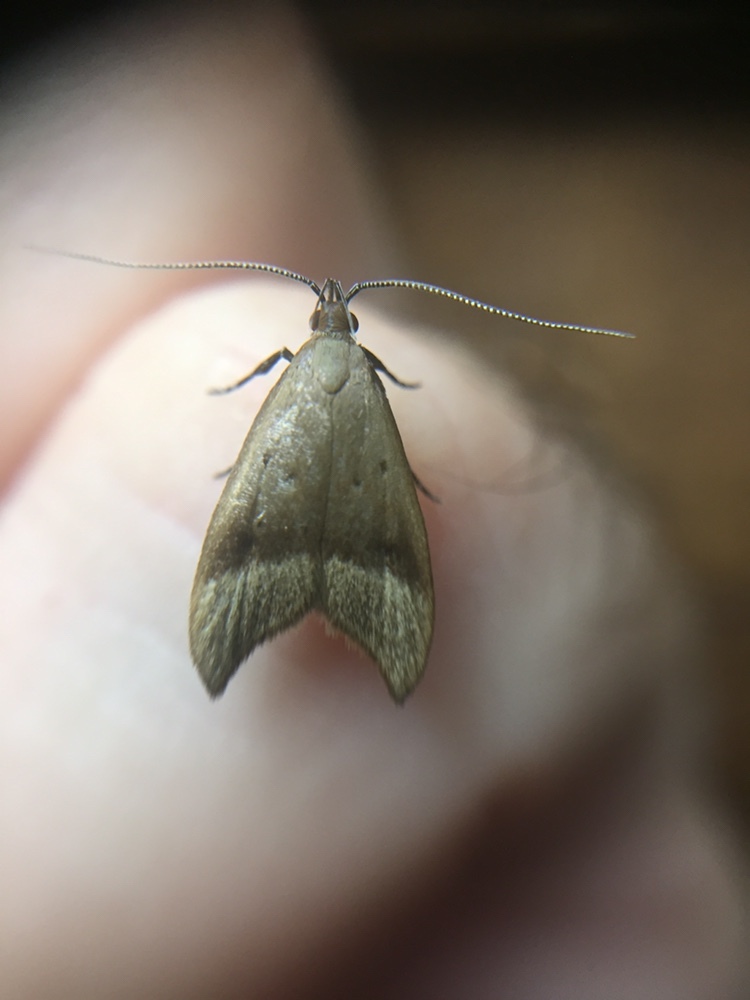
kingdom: Animalia
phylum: Arthropoda
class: Insecta
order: Lepidoptera
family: Oecophoridae
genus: Gymnobathra
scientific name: Gymnobathra hyetodes
